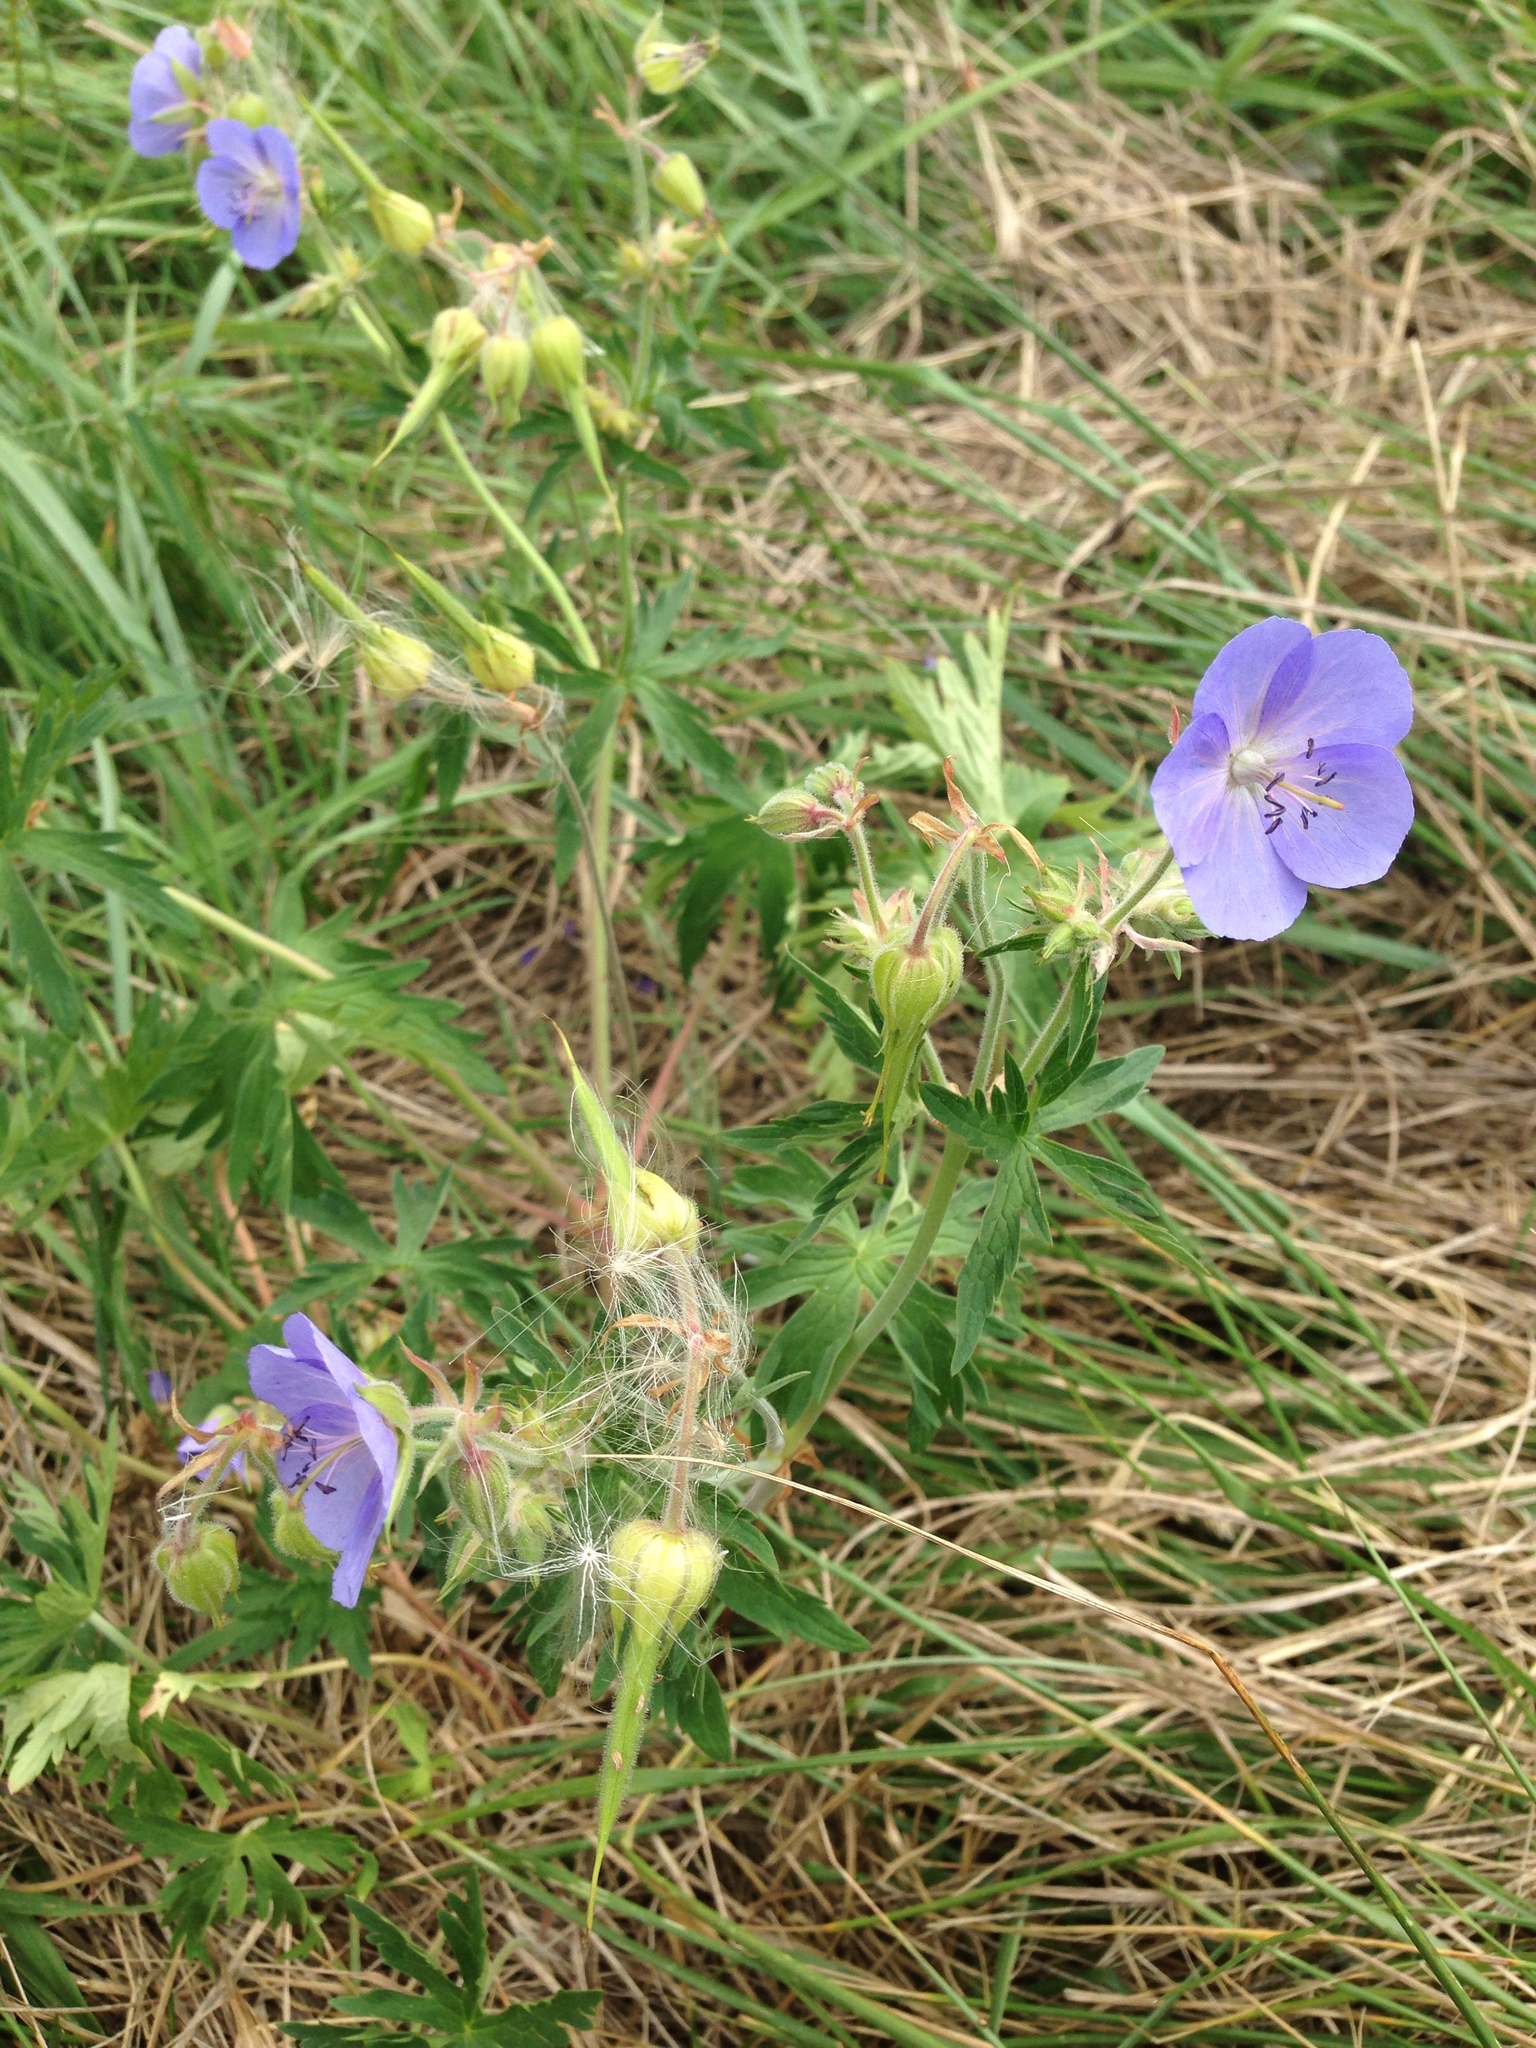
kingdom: Plantae
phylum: Tracheophyta
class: Magnoliopsida
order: Geraniales
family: Geraniaceae
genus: Geranium
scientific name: Geranium pratense
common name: Meadow crane's-bill
